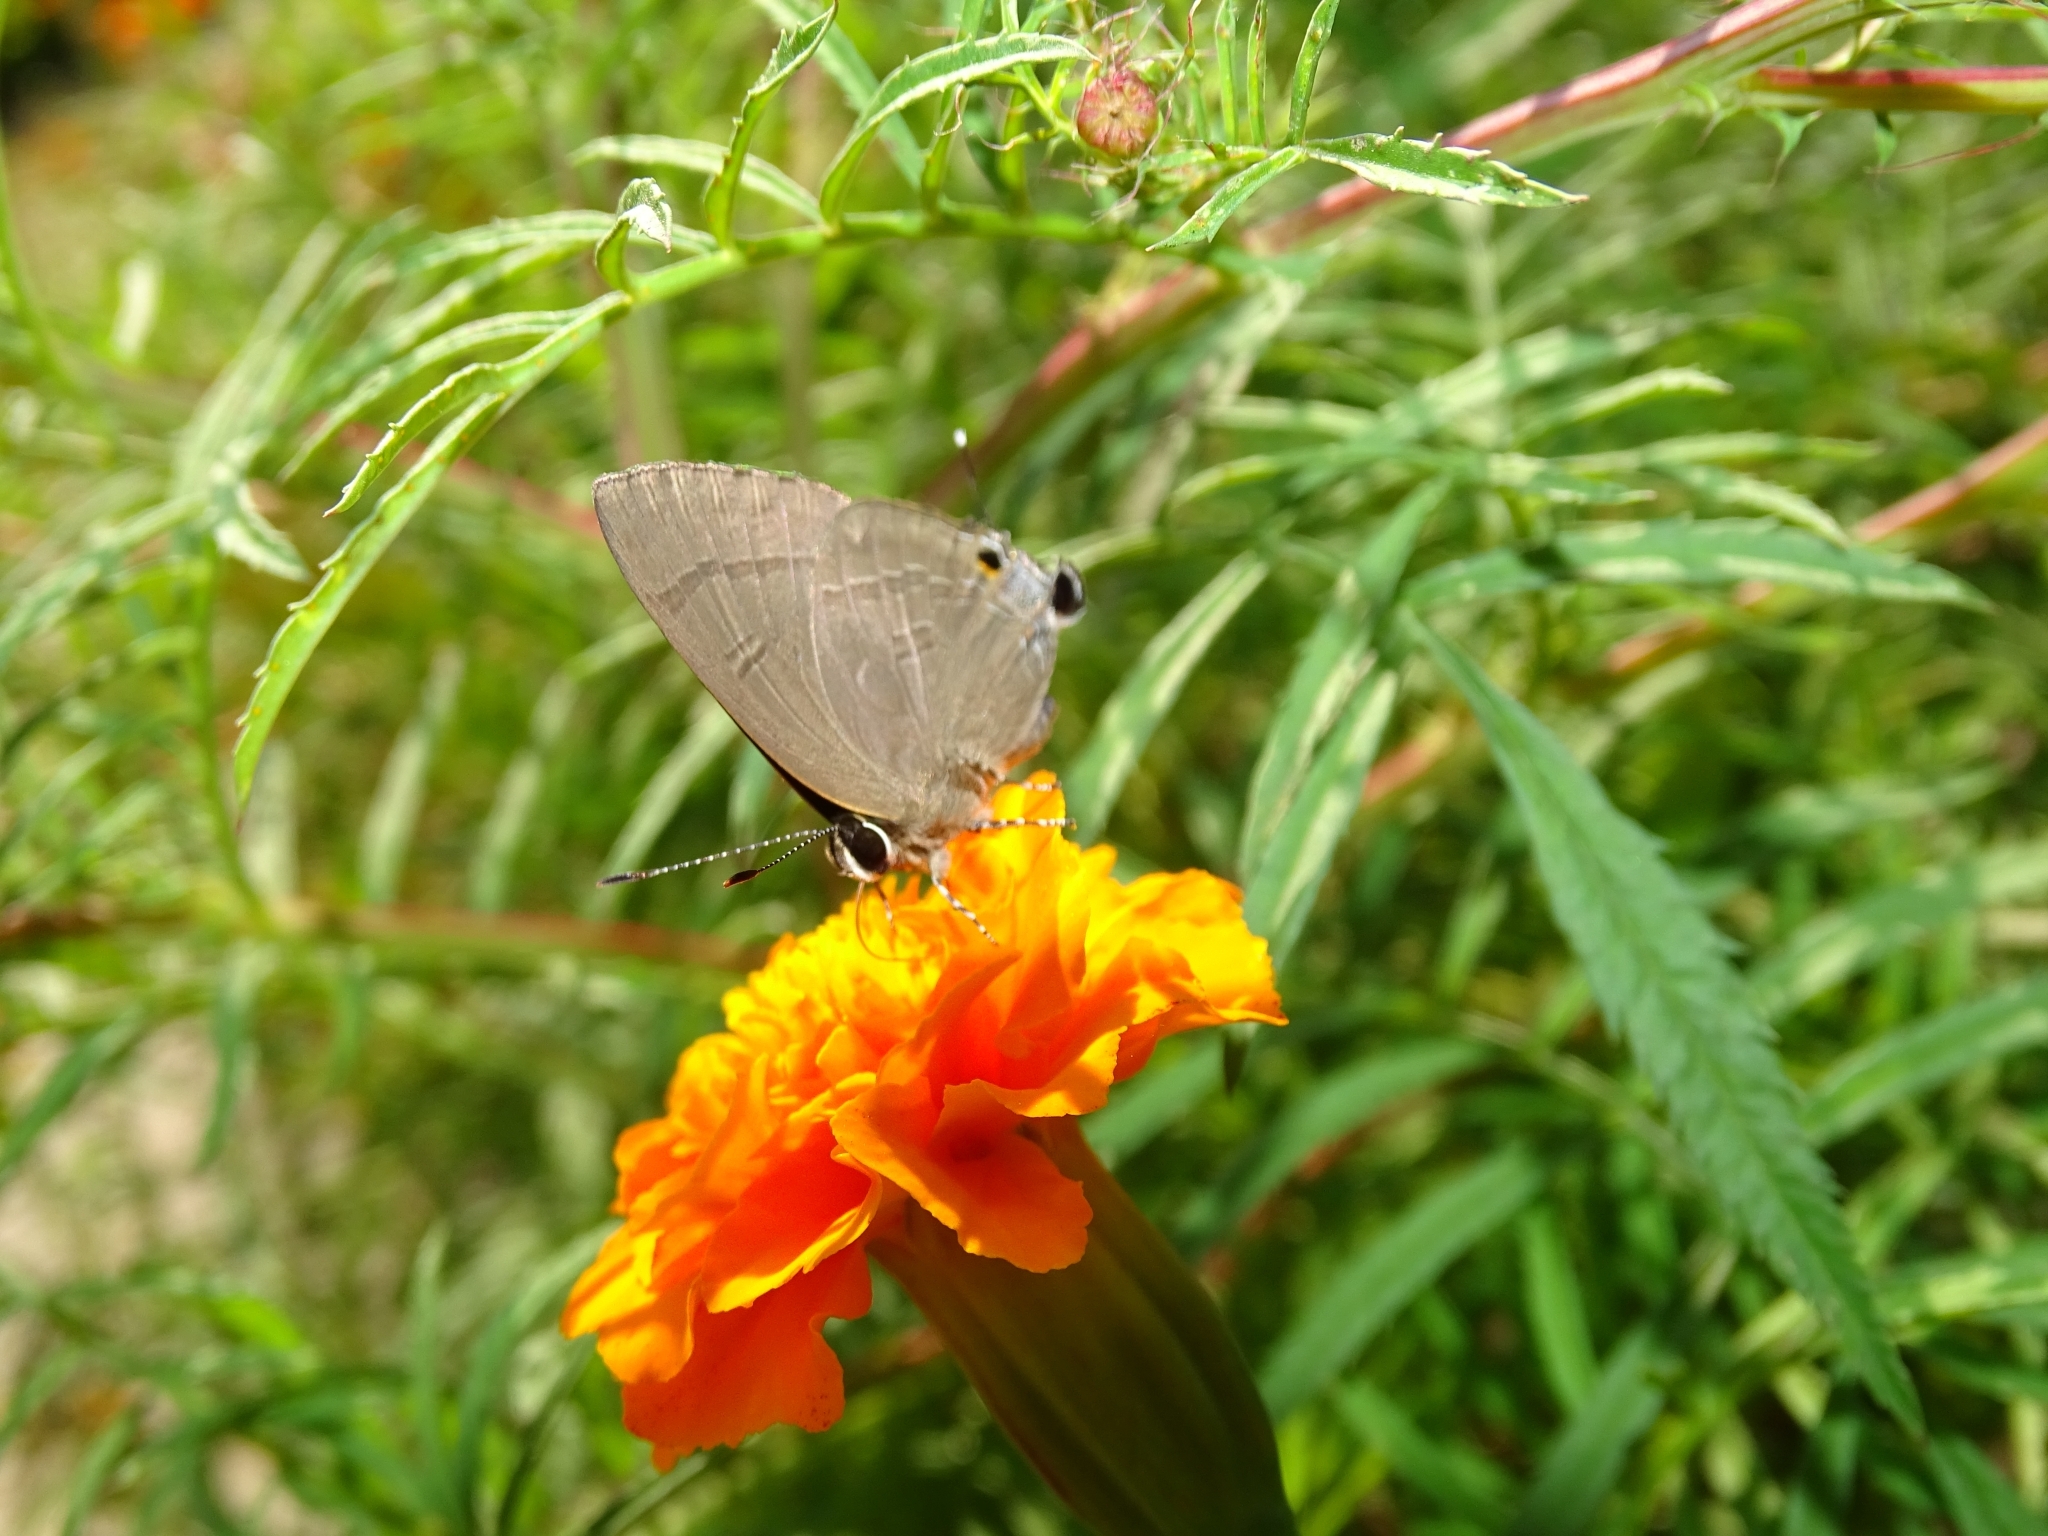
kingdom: Animalia
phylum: Arthropoda
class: Insecta
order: Lepidoptera
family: Lycaenidae
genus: Rapala
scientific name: Rapala manea
